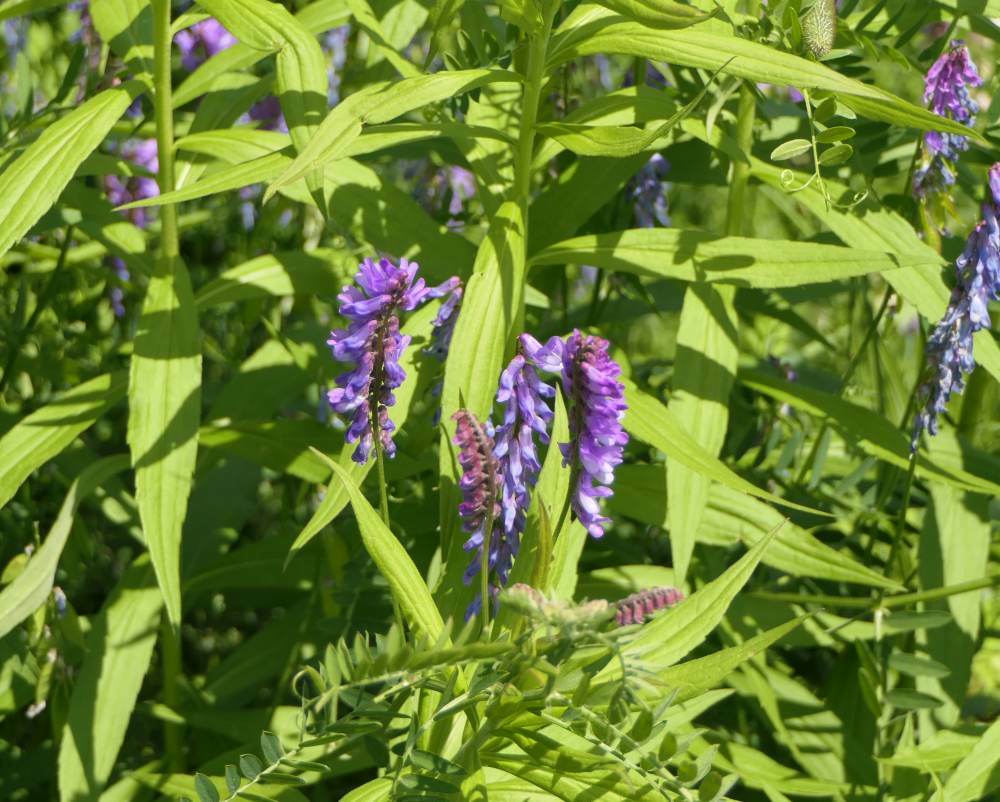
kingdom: Plantae
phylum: Tracheophyta
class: Magnoliopsida
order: Fabales
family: Fabaceae
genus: Vicia
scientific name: Vicia cracca
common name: Bird vetch
